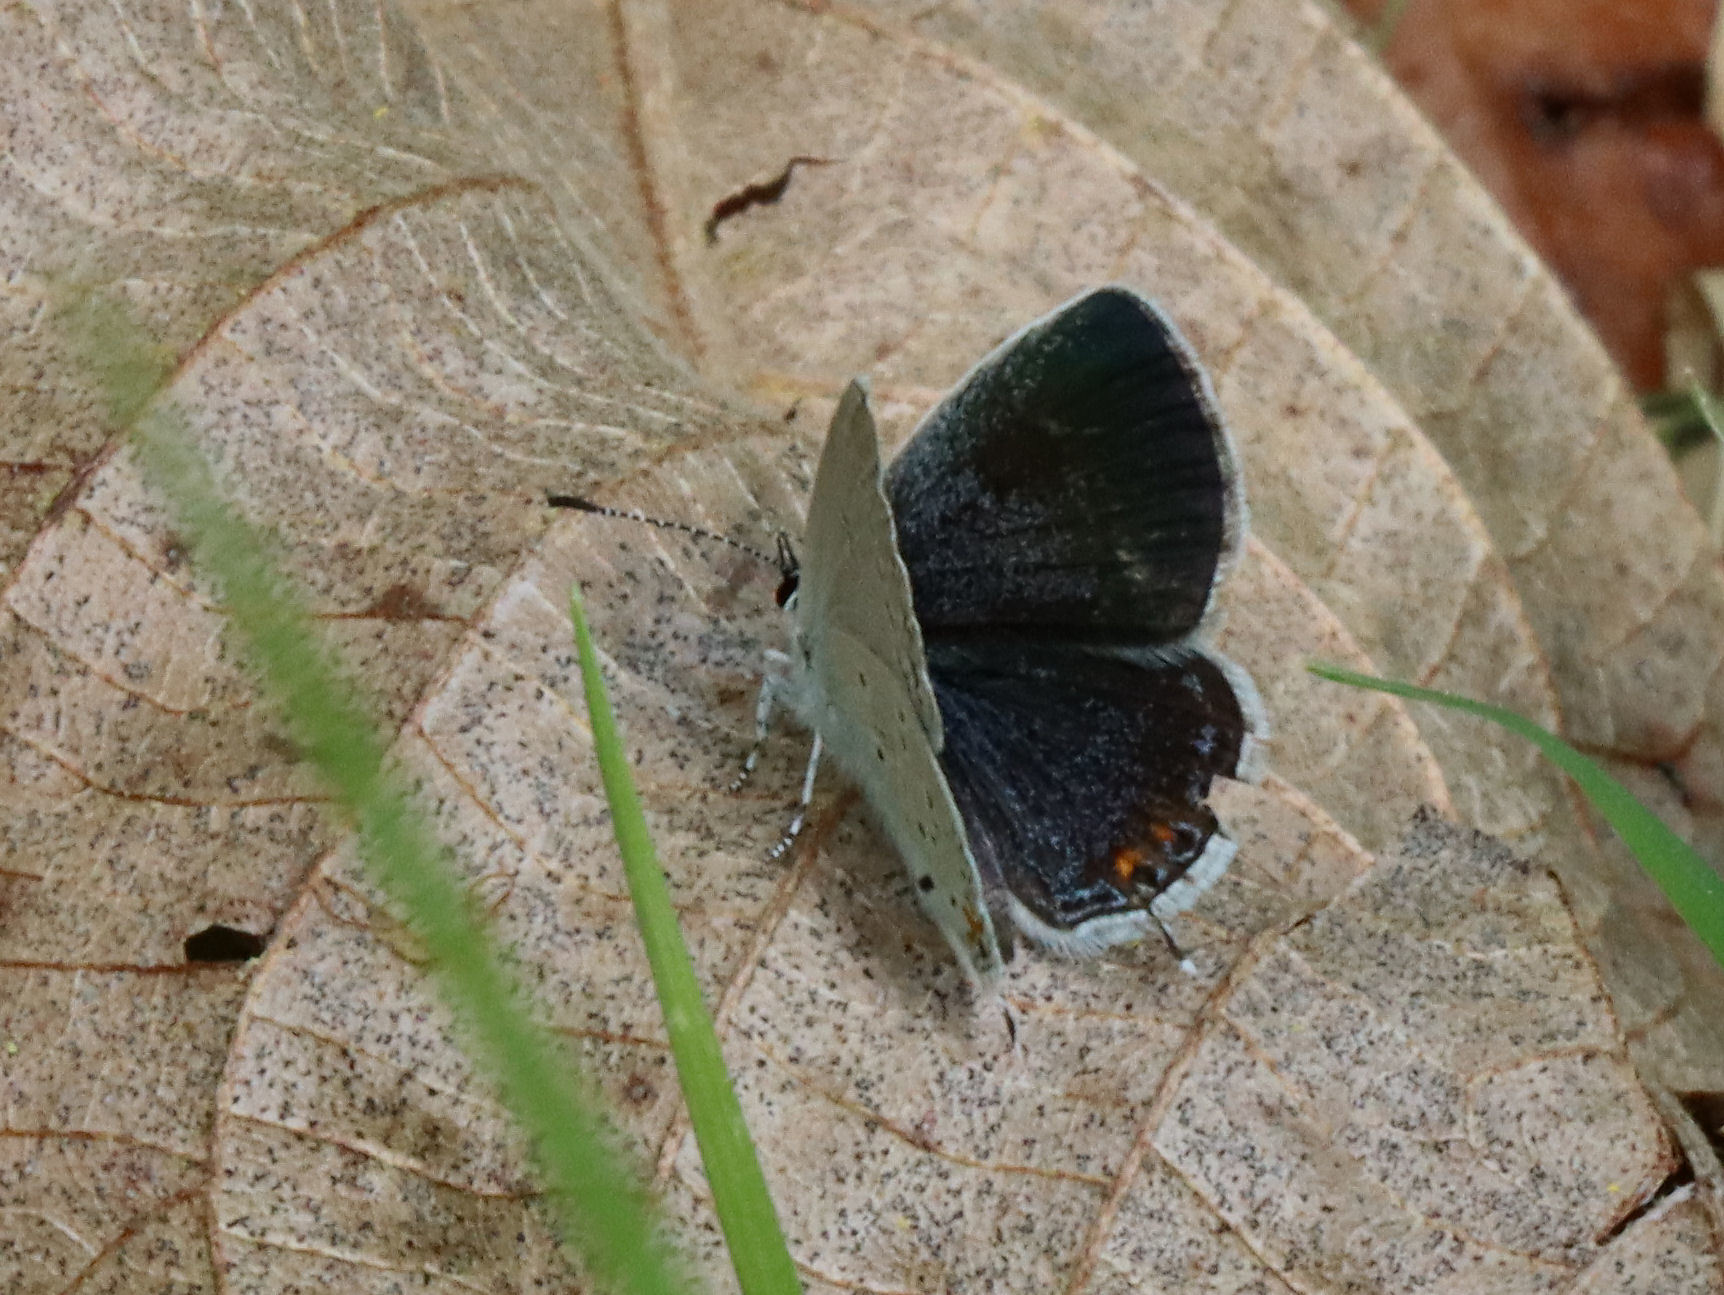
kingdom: Animalia
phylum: Arthropoda
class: Insecta
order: Lepidoptera
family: Lycaenidae
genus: Elkalyce
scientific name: Elkalyce comyntas
